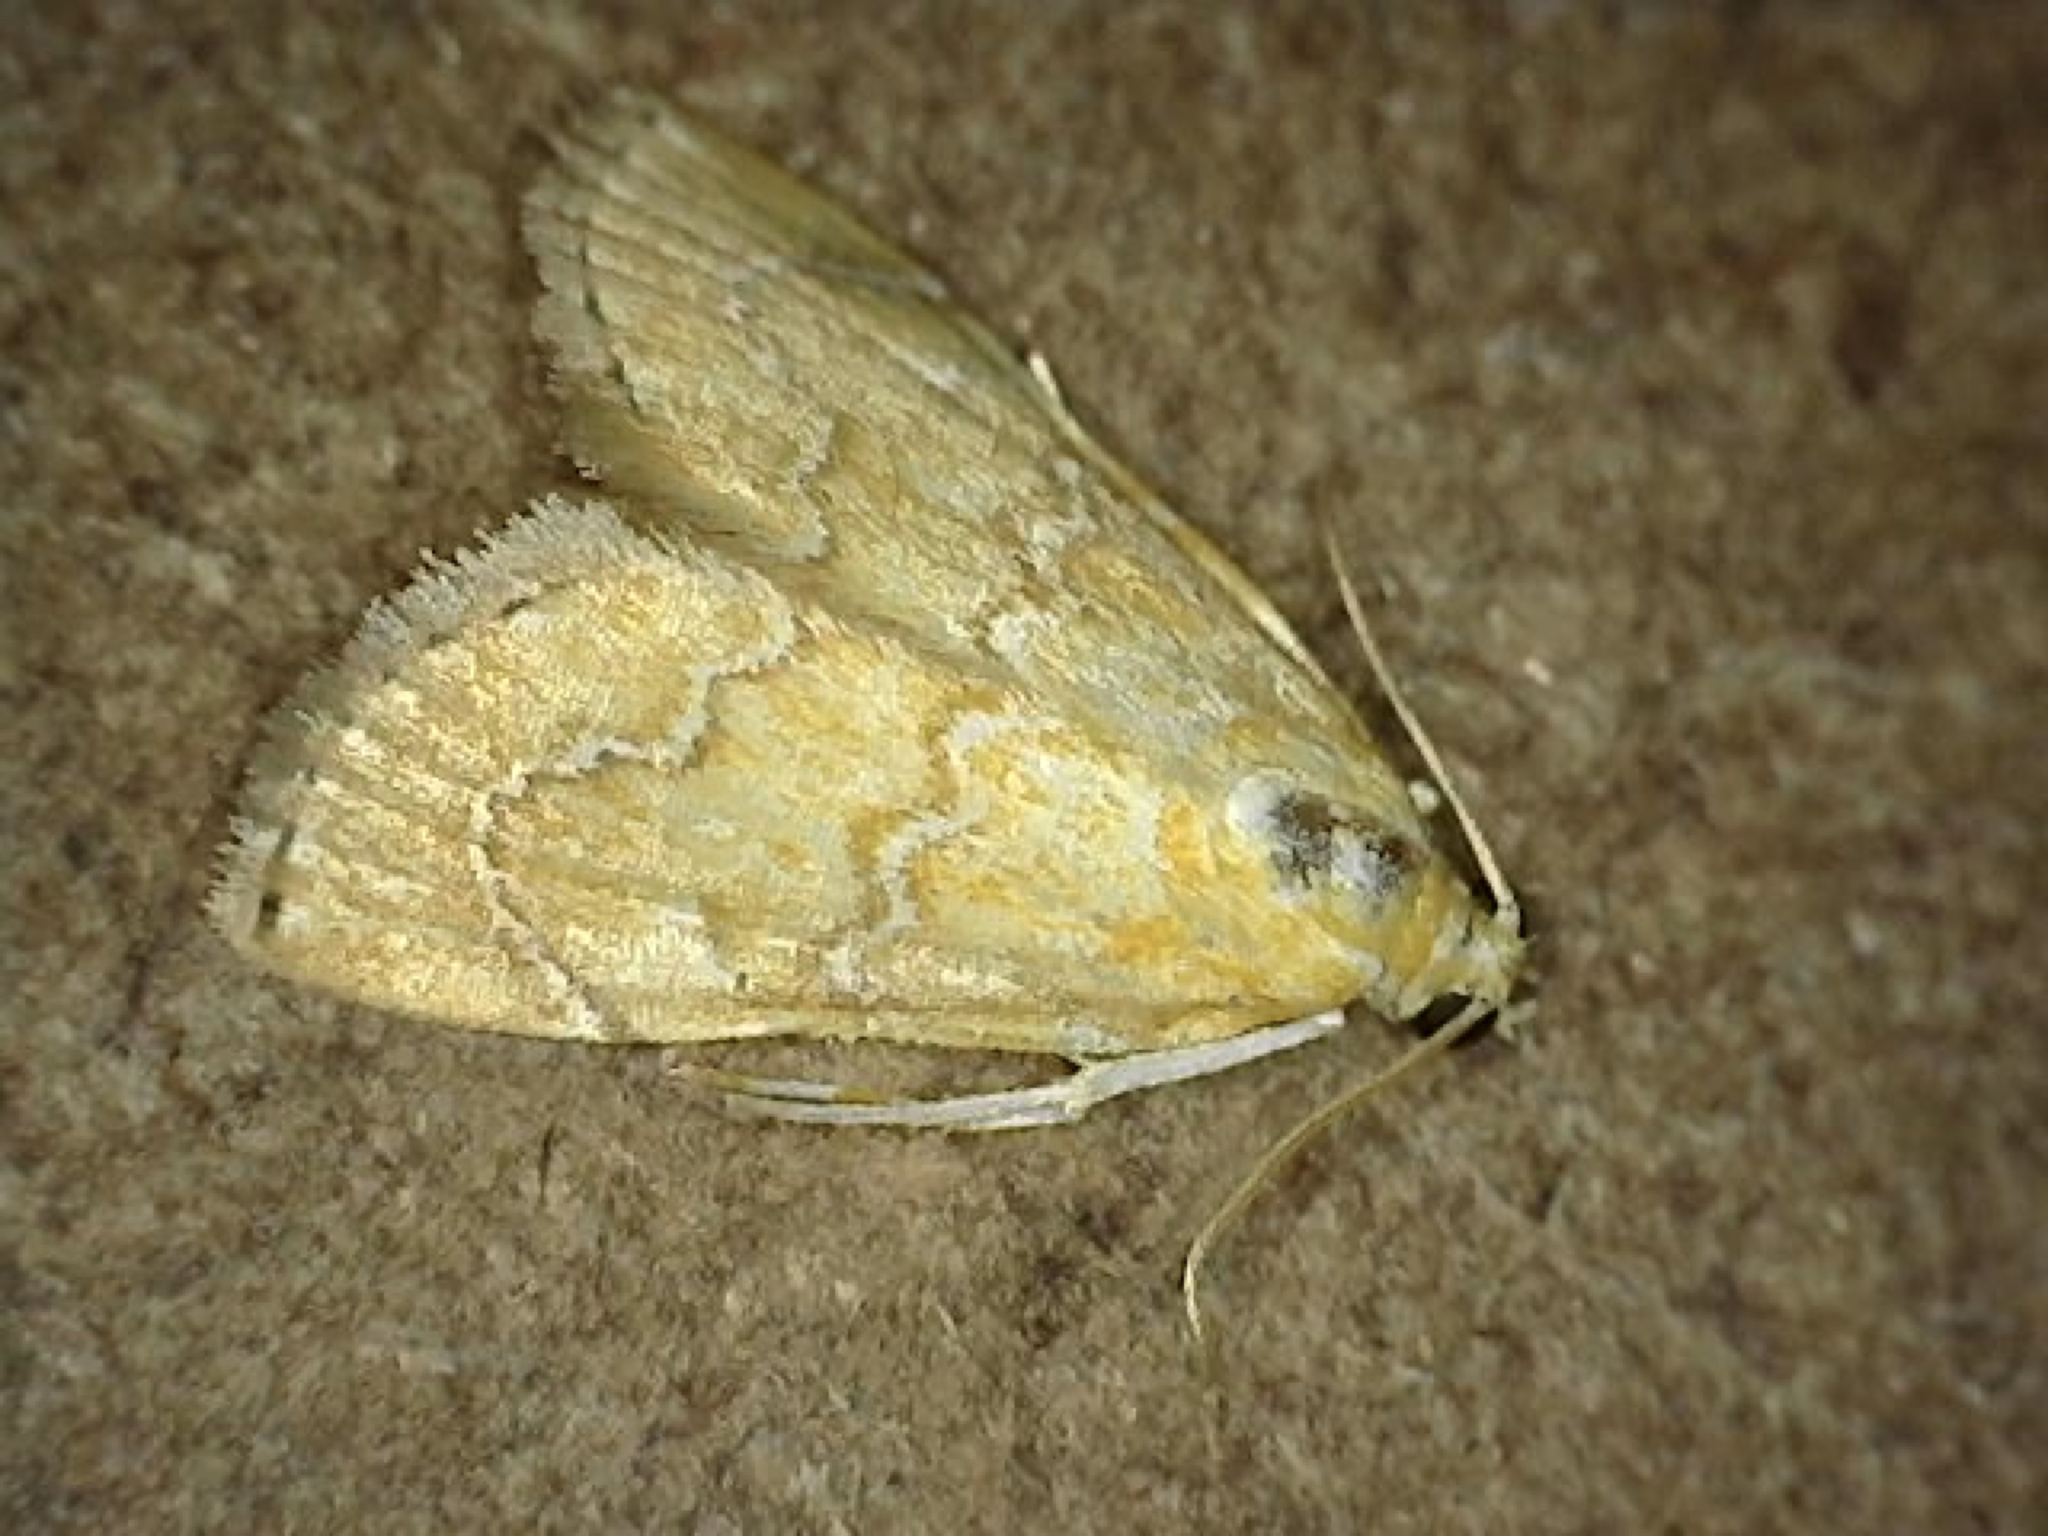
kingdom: Animalia
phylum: Arthropoda
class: Insecta
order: Lepidoptera
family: Crambidae
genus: Glaphyria
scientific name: Glaphyria sesquistrialis
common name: White-roped glaphyria
